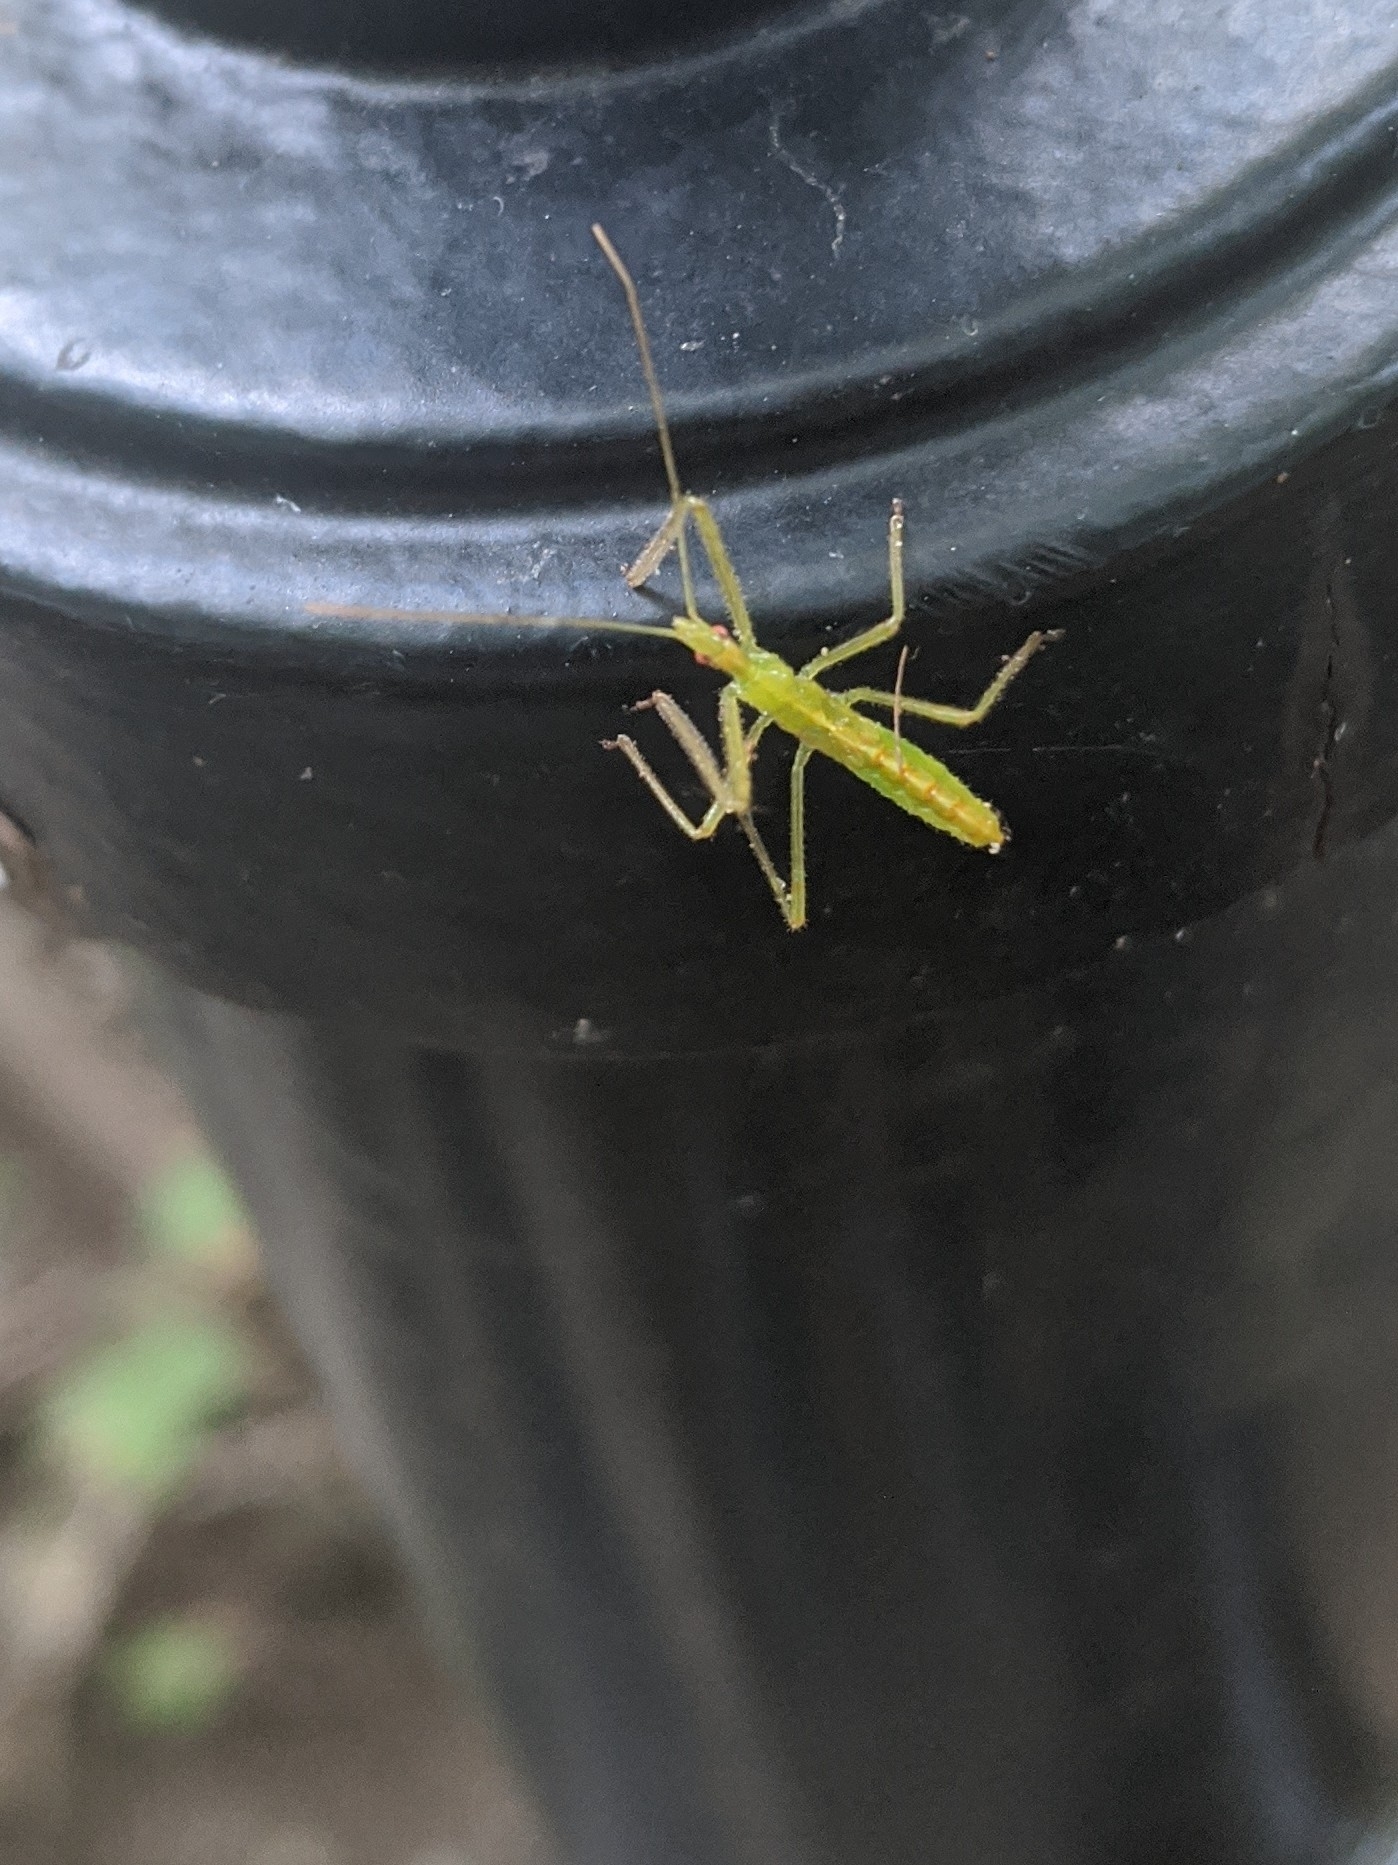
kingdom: Animalia
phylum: Arthropoda
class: Insecta
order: Hemiptera
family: Reduviidae
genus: Zelus
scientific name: Zelus luridus
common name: Pale green assassin bug
